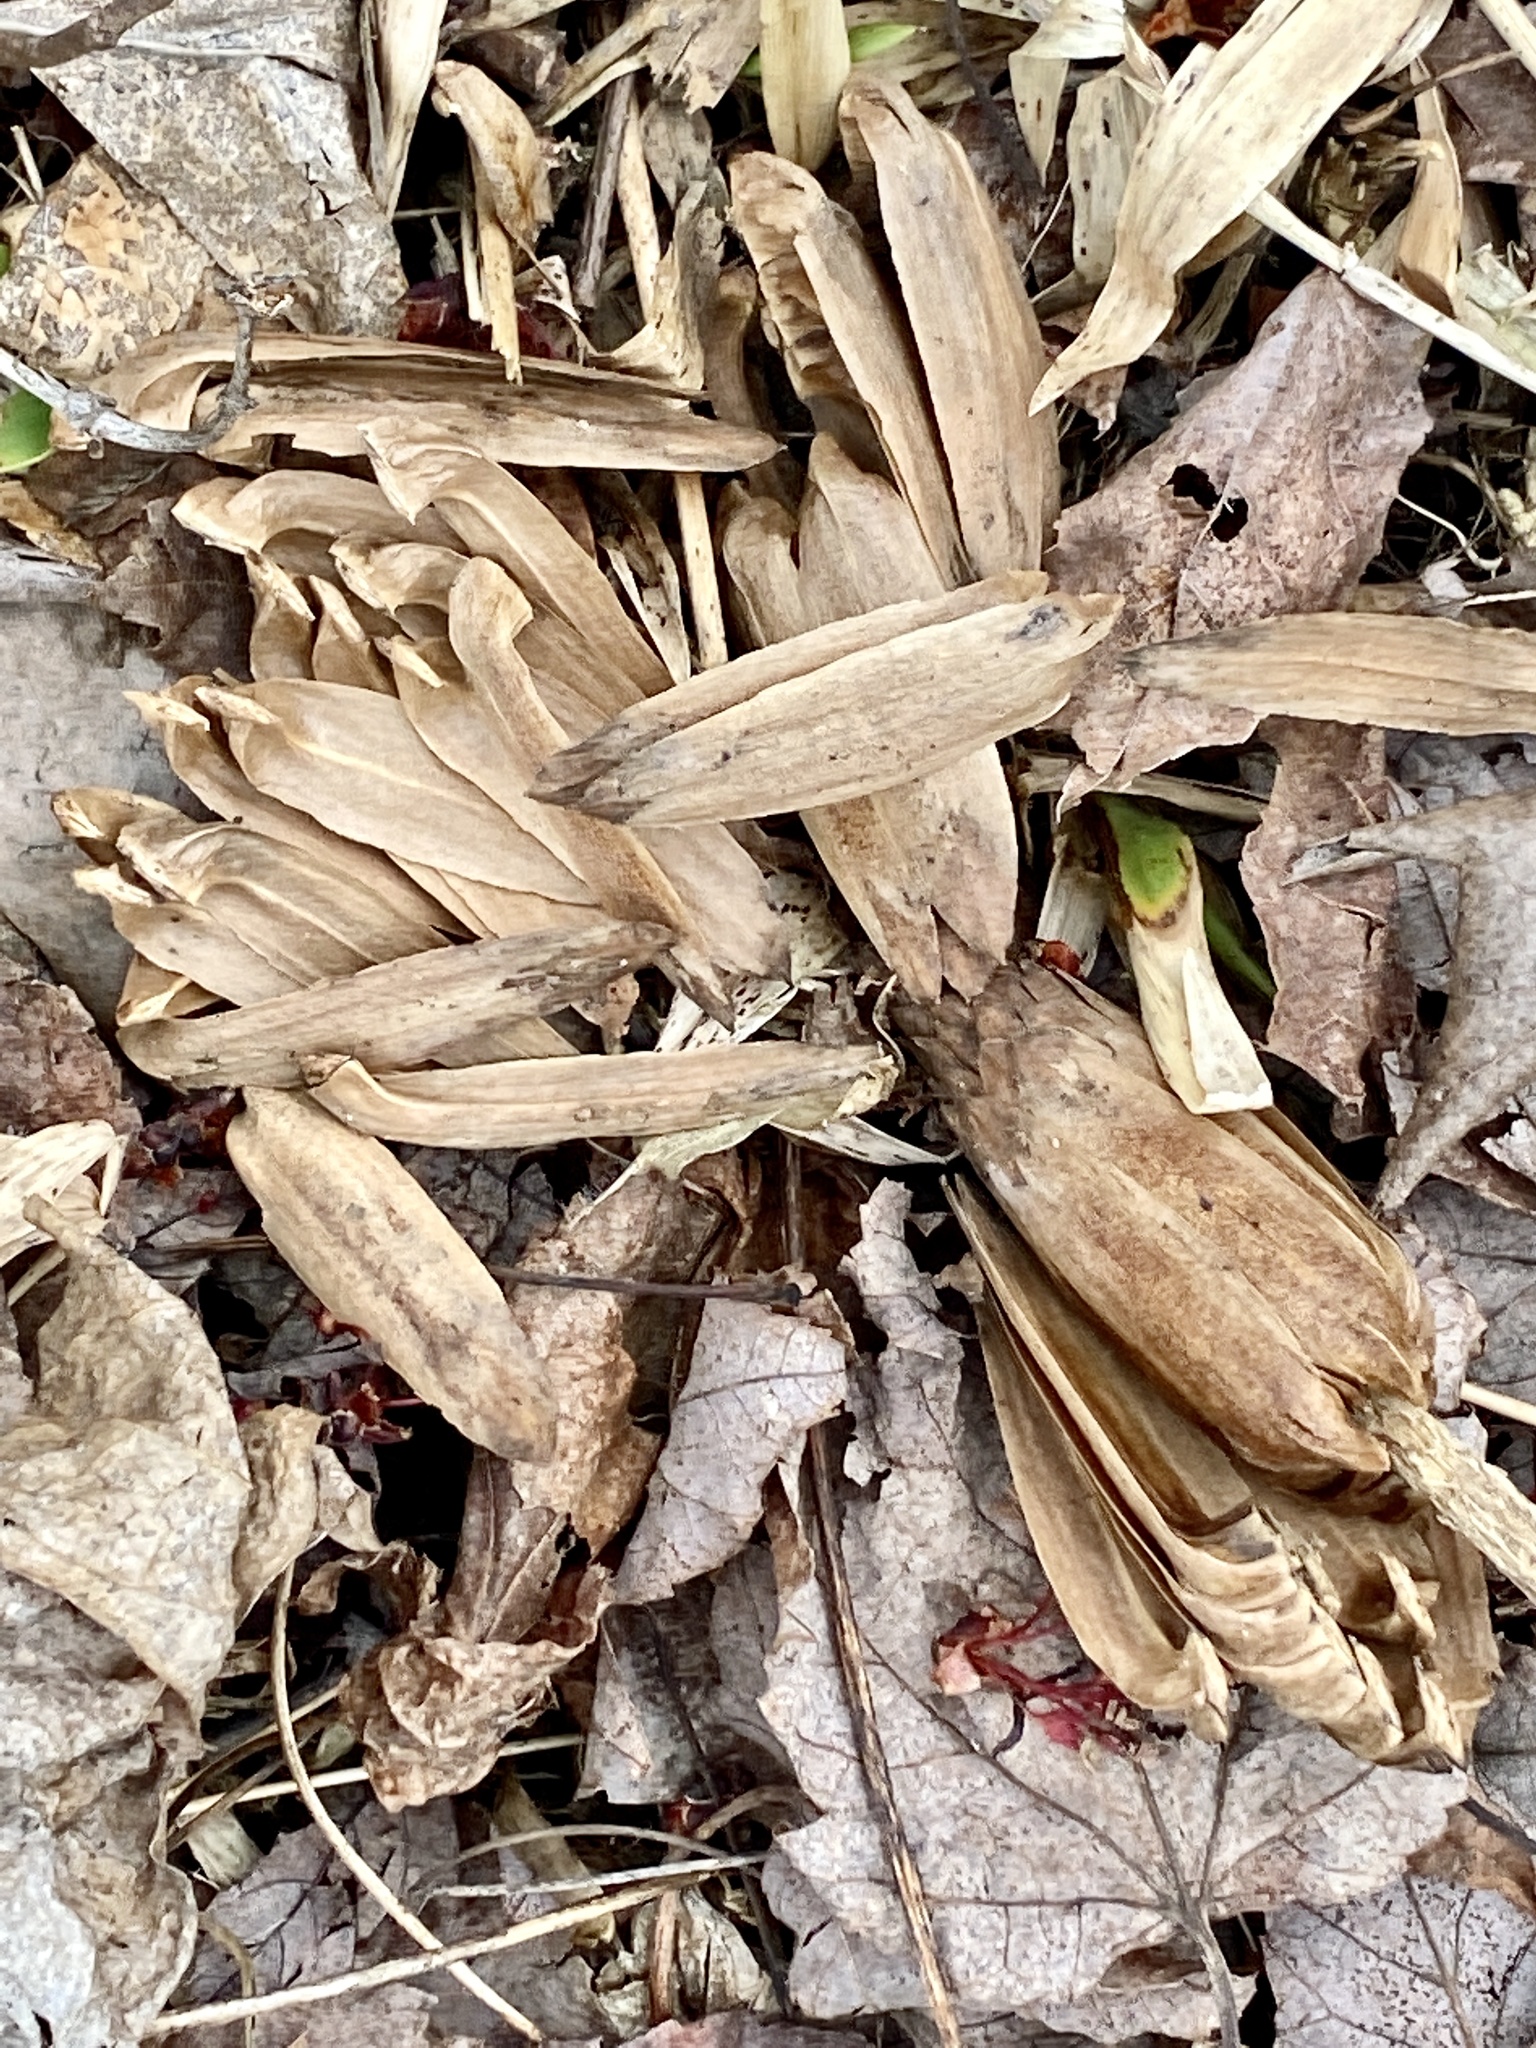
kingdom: Plantae
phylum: Tracheophyta
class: Magnoliopsida
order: Magnoliales
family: Magnoliaceae
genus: Liriodendron
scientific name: Liriodendron tulipifera
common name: Tulip tree
